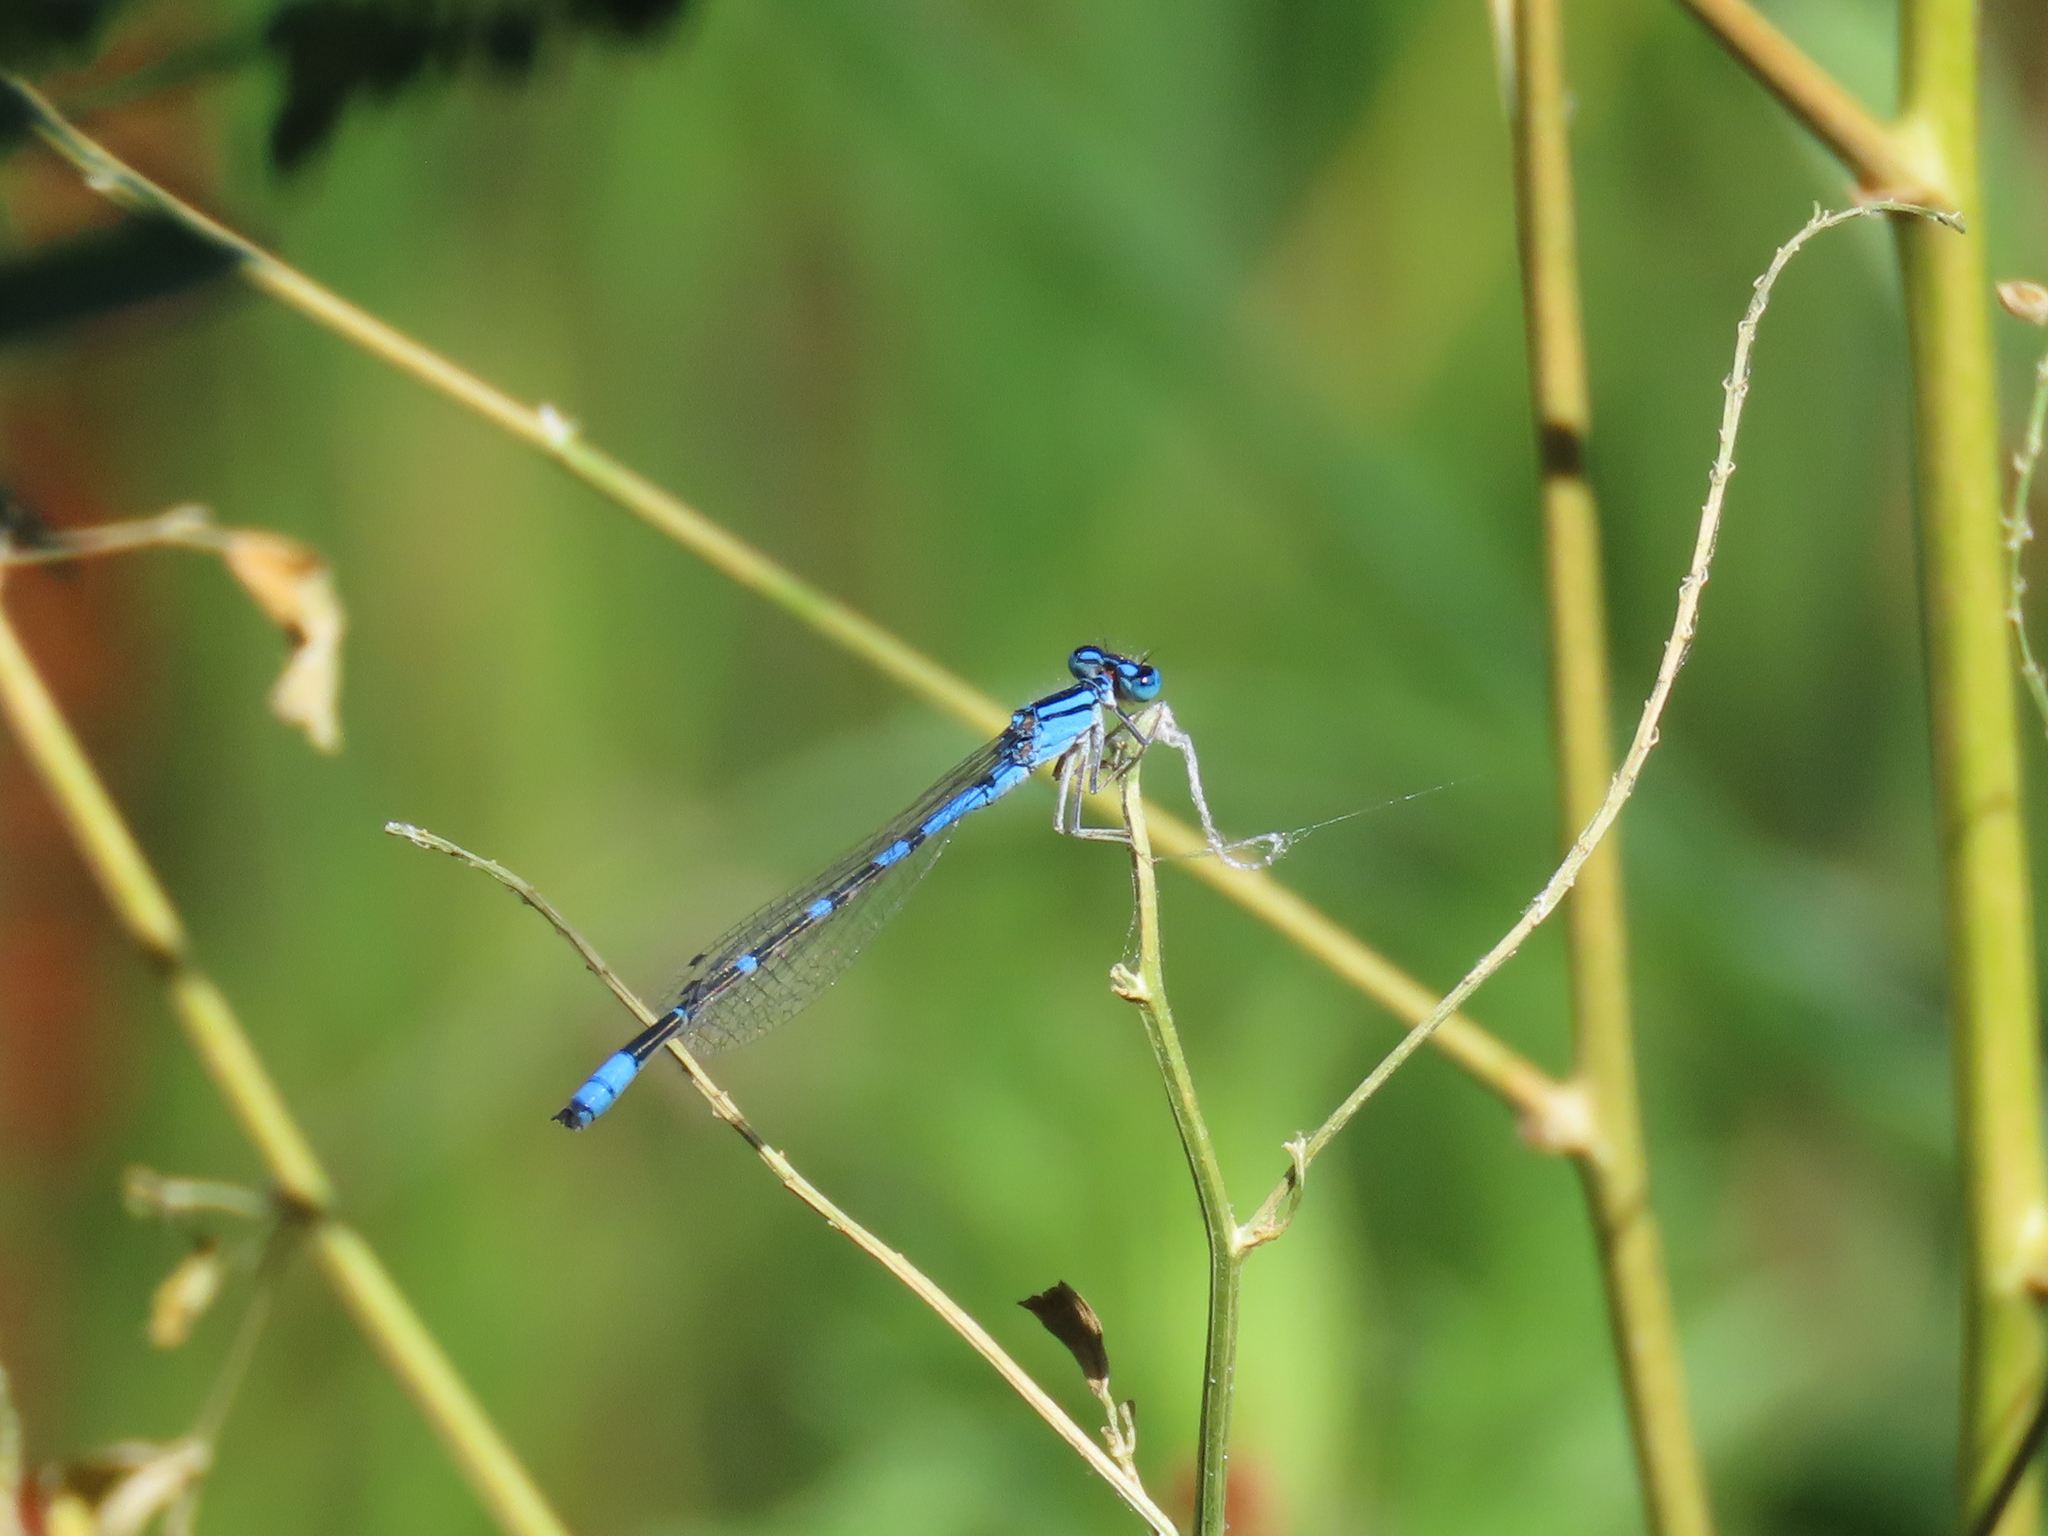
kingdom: Animalia
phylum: Arthropoda
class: Insecta
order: Odonata
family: Coenagrionidae
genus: Enallagma
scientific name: Enallagma praevarum
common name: Arroyo bluet
